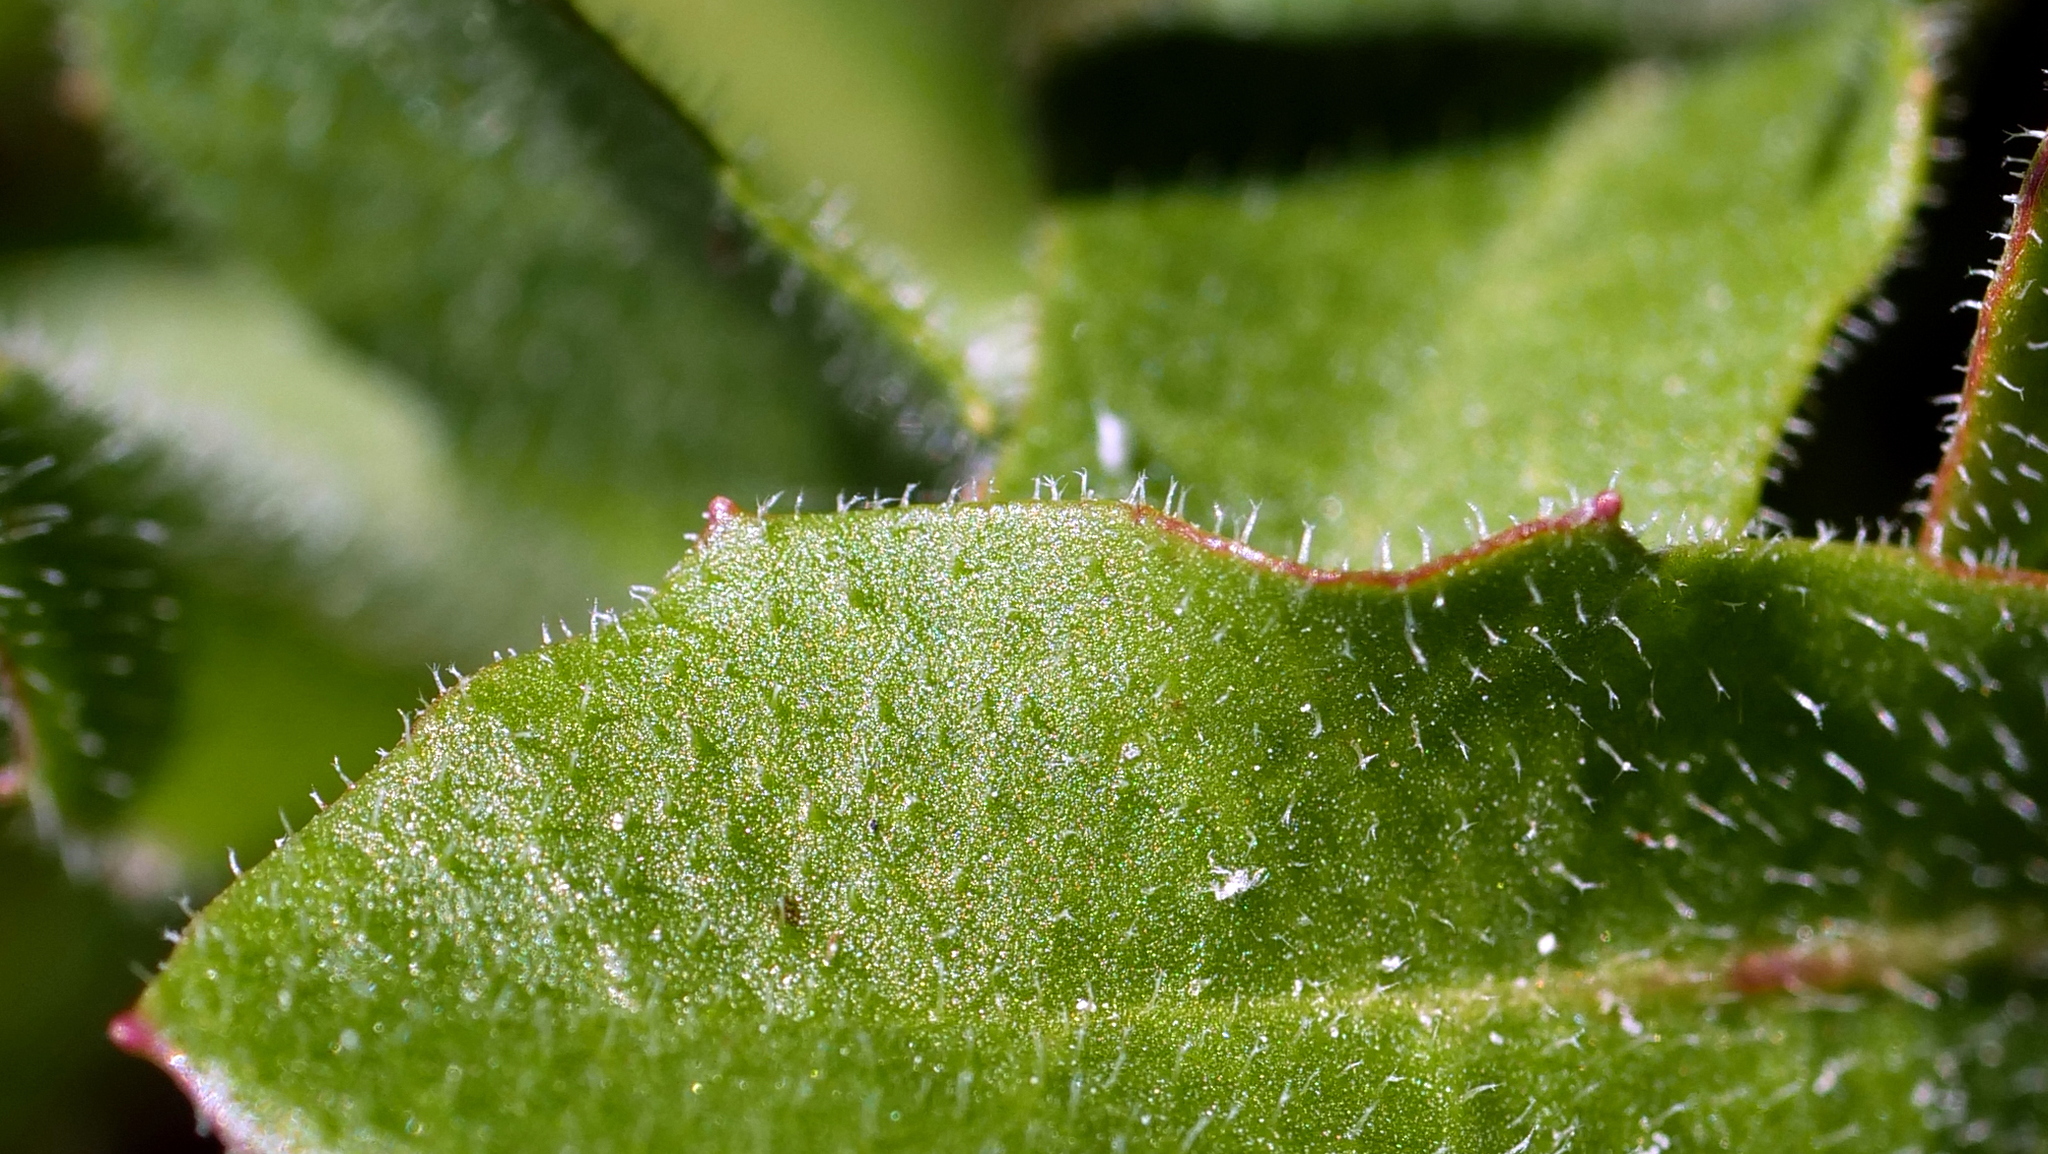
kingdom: Plantae
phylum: Tracheophyta
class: Magnoliopsida
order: Asterales
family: Asteraceae
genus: Leontodon
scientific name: Leontodon hispidus
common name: Rough hawkbit
